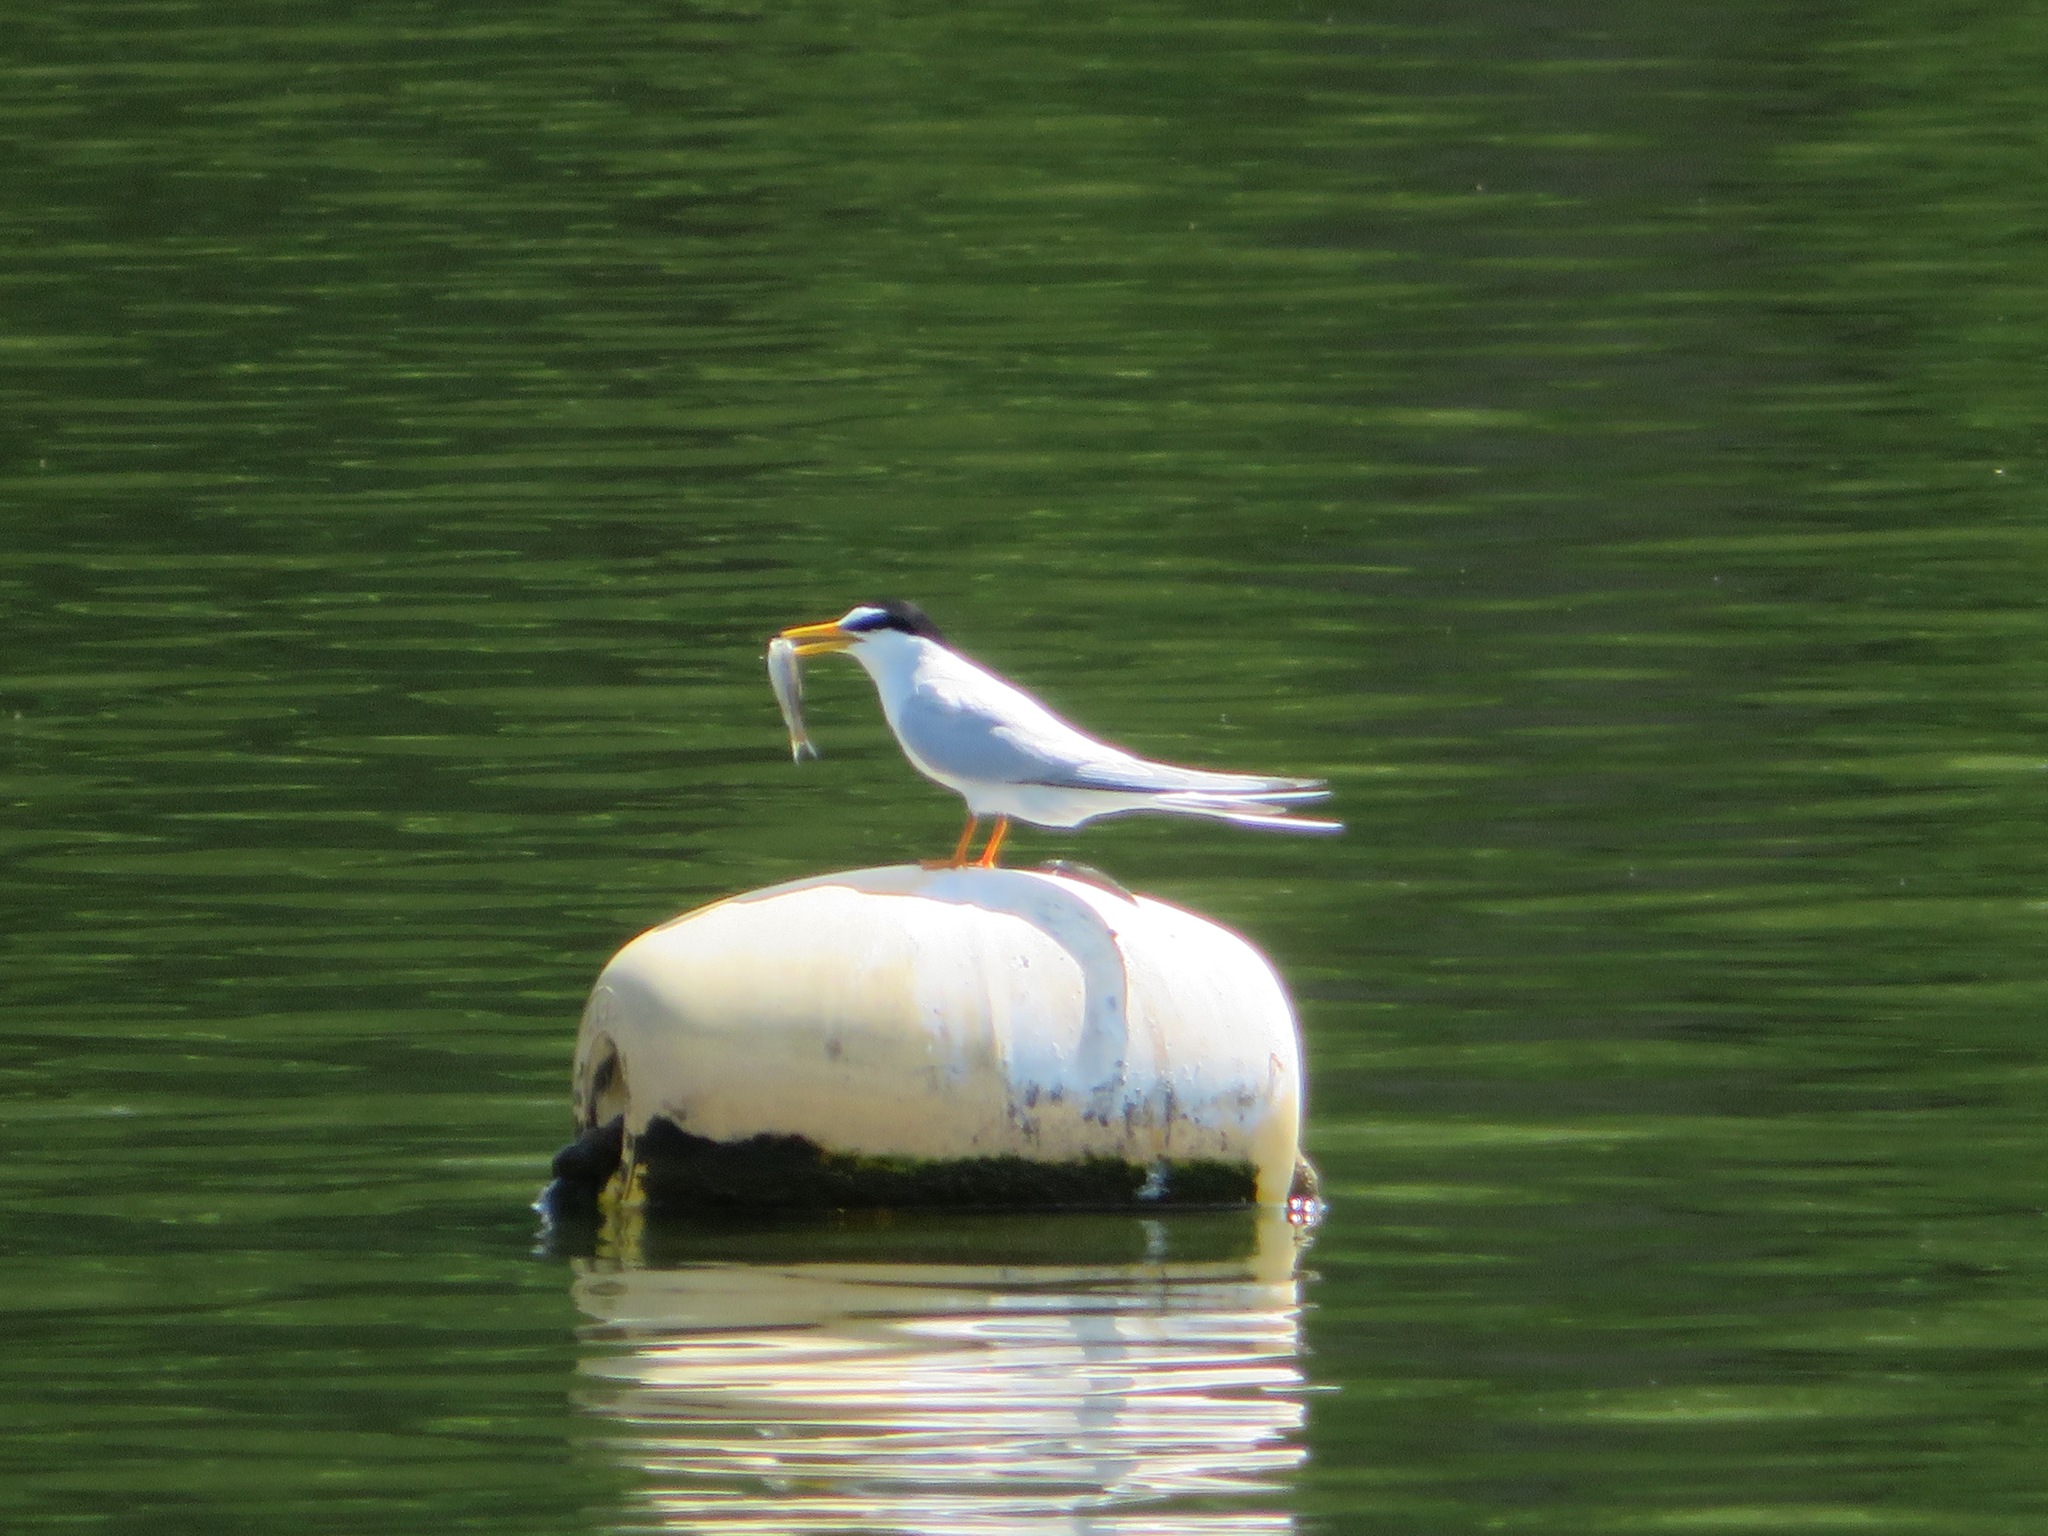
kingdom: Animalia
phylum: Chordata
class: Aves
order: Charadriiformes
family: Laridae
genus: Sternula
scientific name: Sternula albifrons
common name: Little tern
